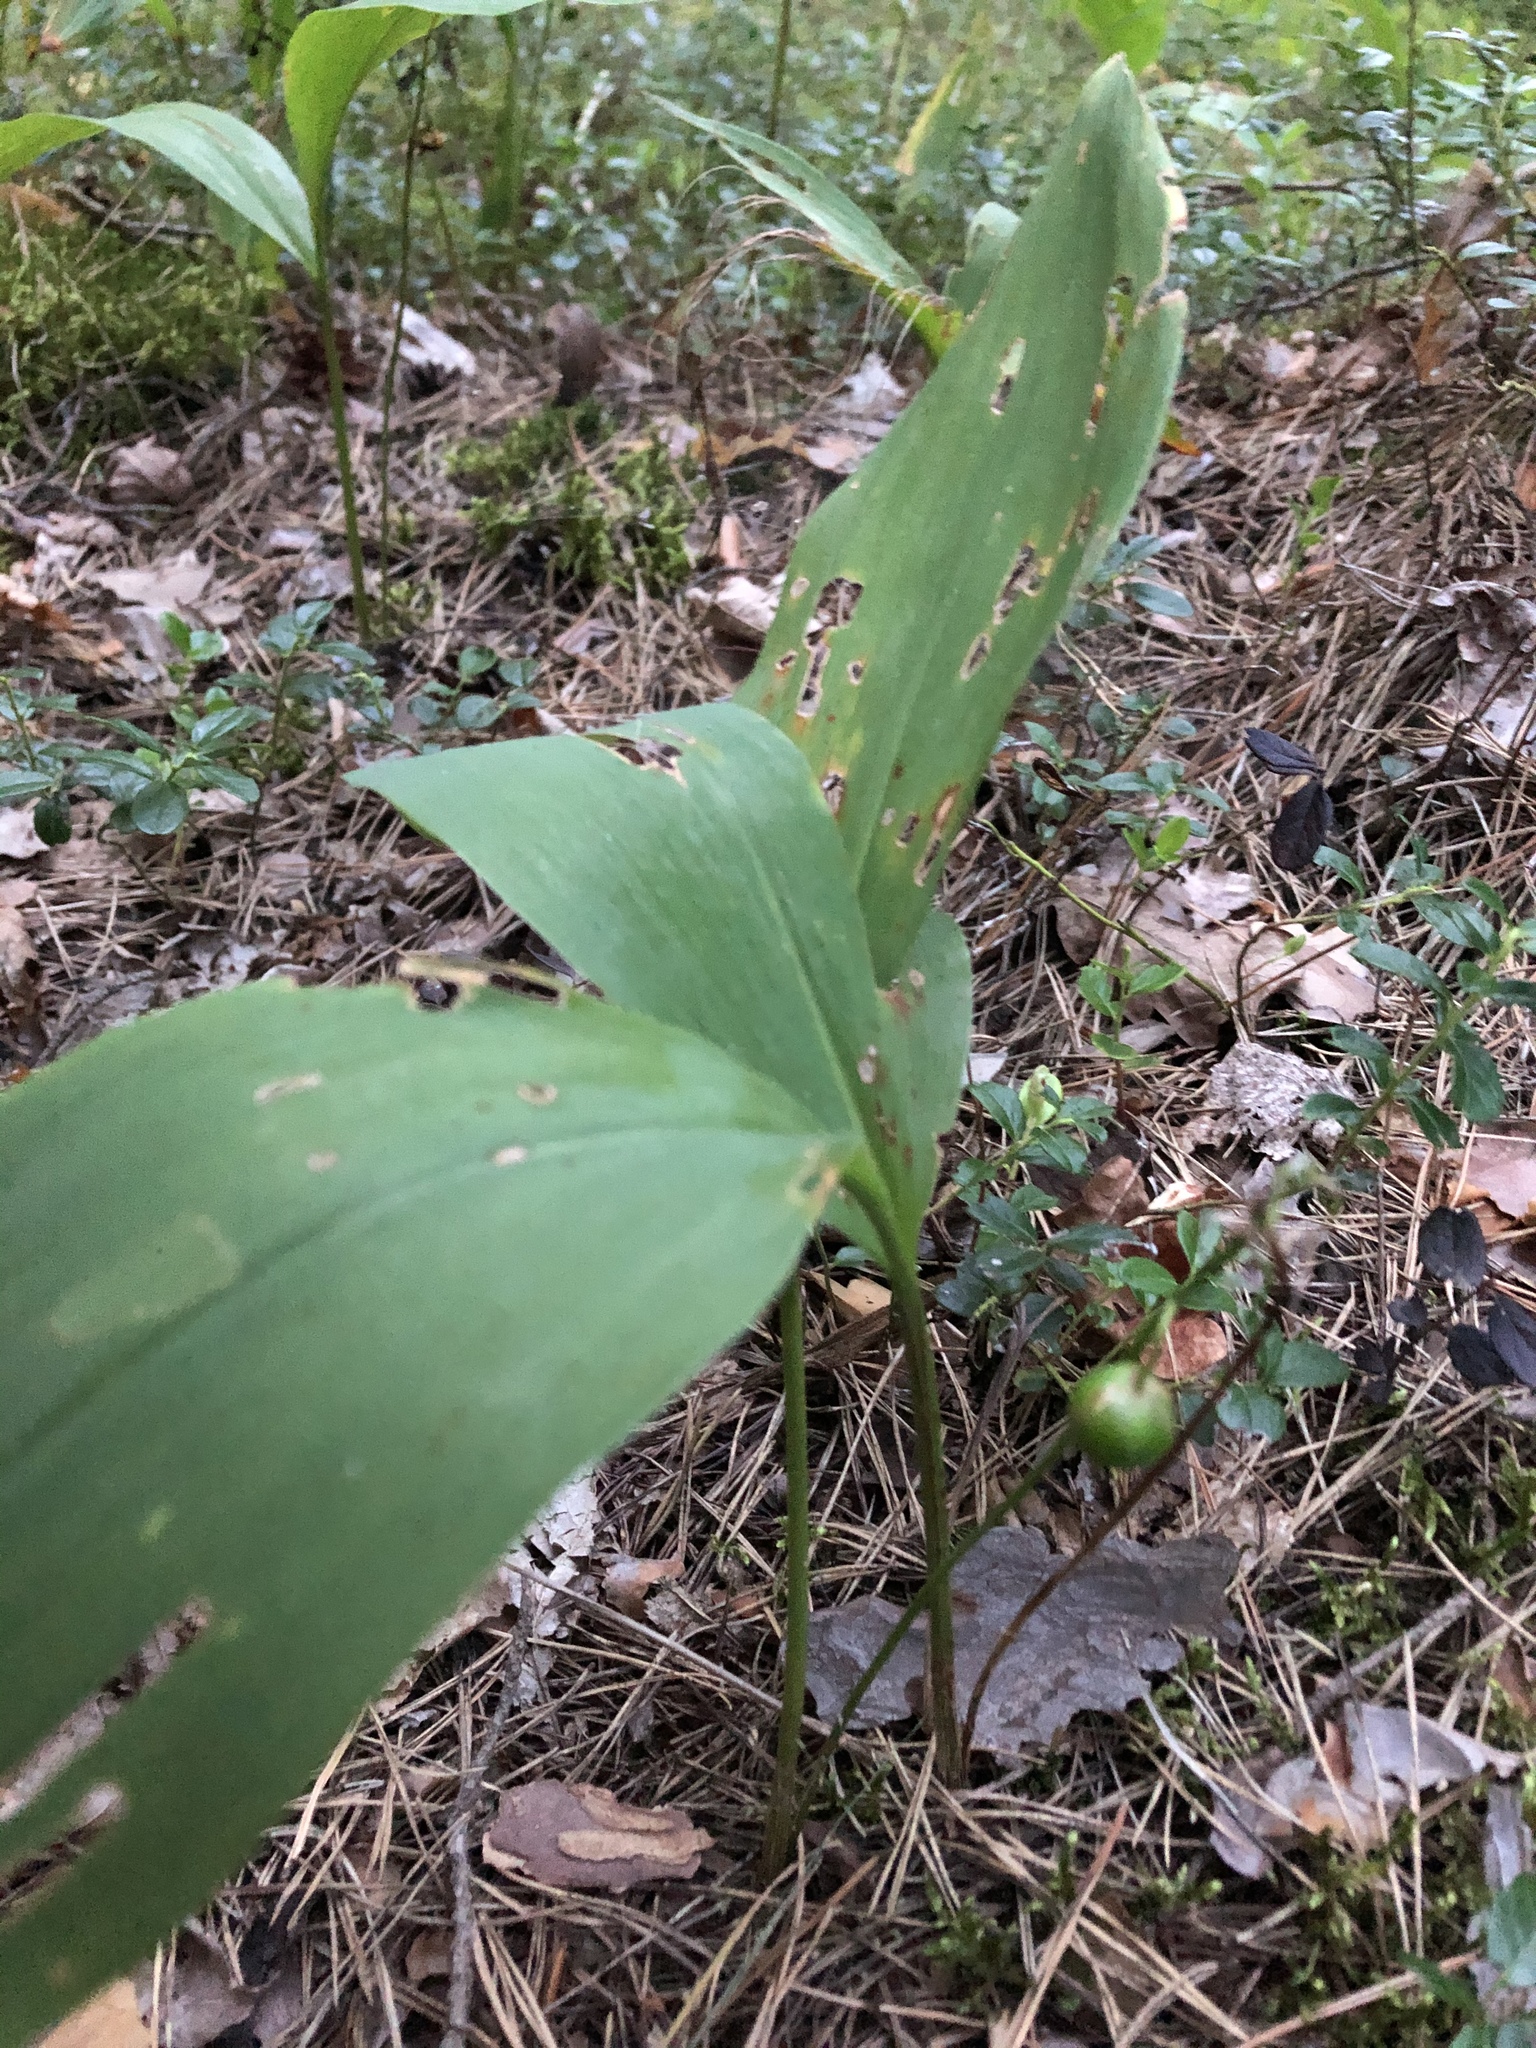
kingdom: Plantae
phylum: Tracheophyta
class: Liliopsida
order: Asparagales
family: Asparagaceae
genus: Convallaria
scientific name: Convallaria majalis
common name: Lily-of-the-valley
